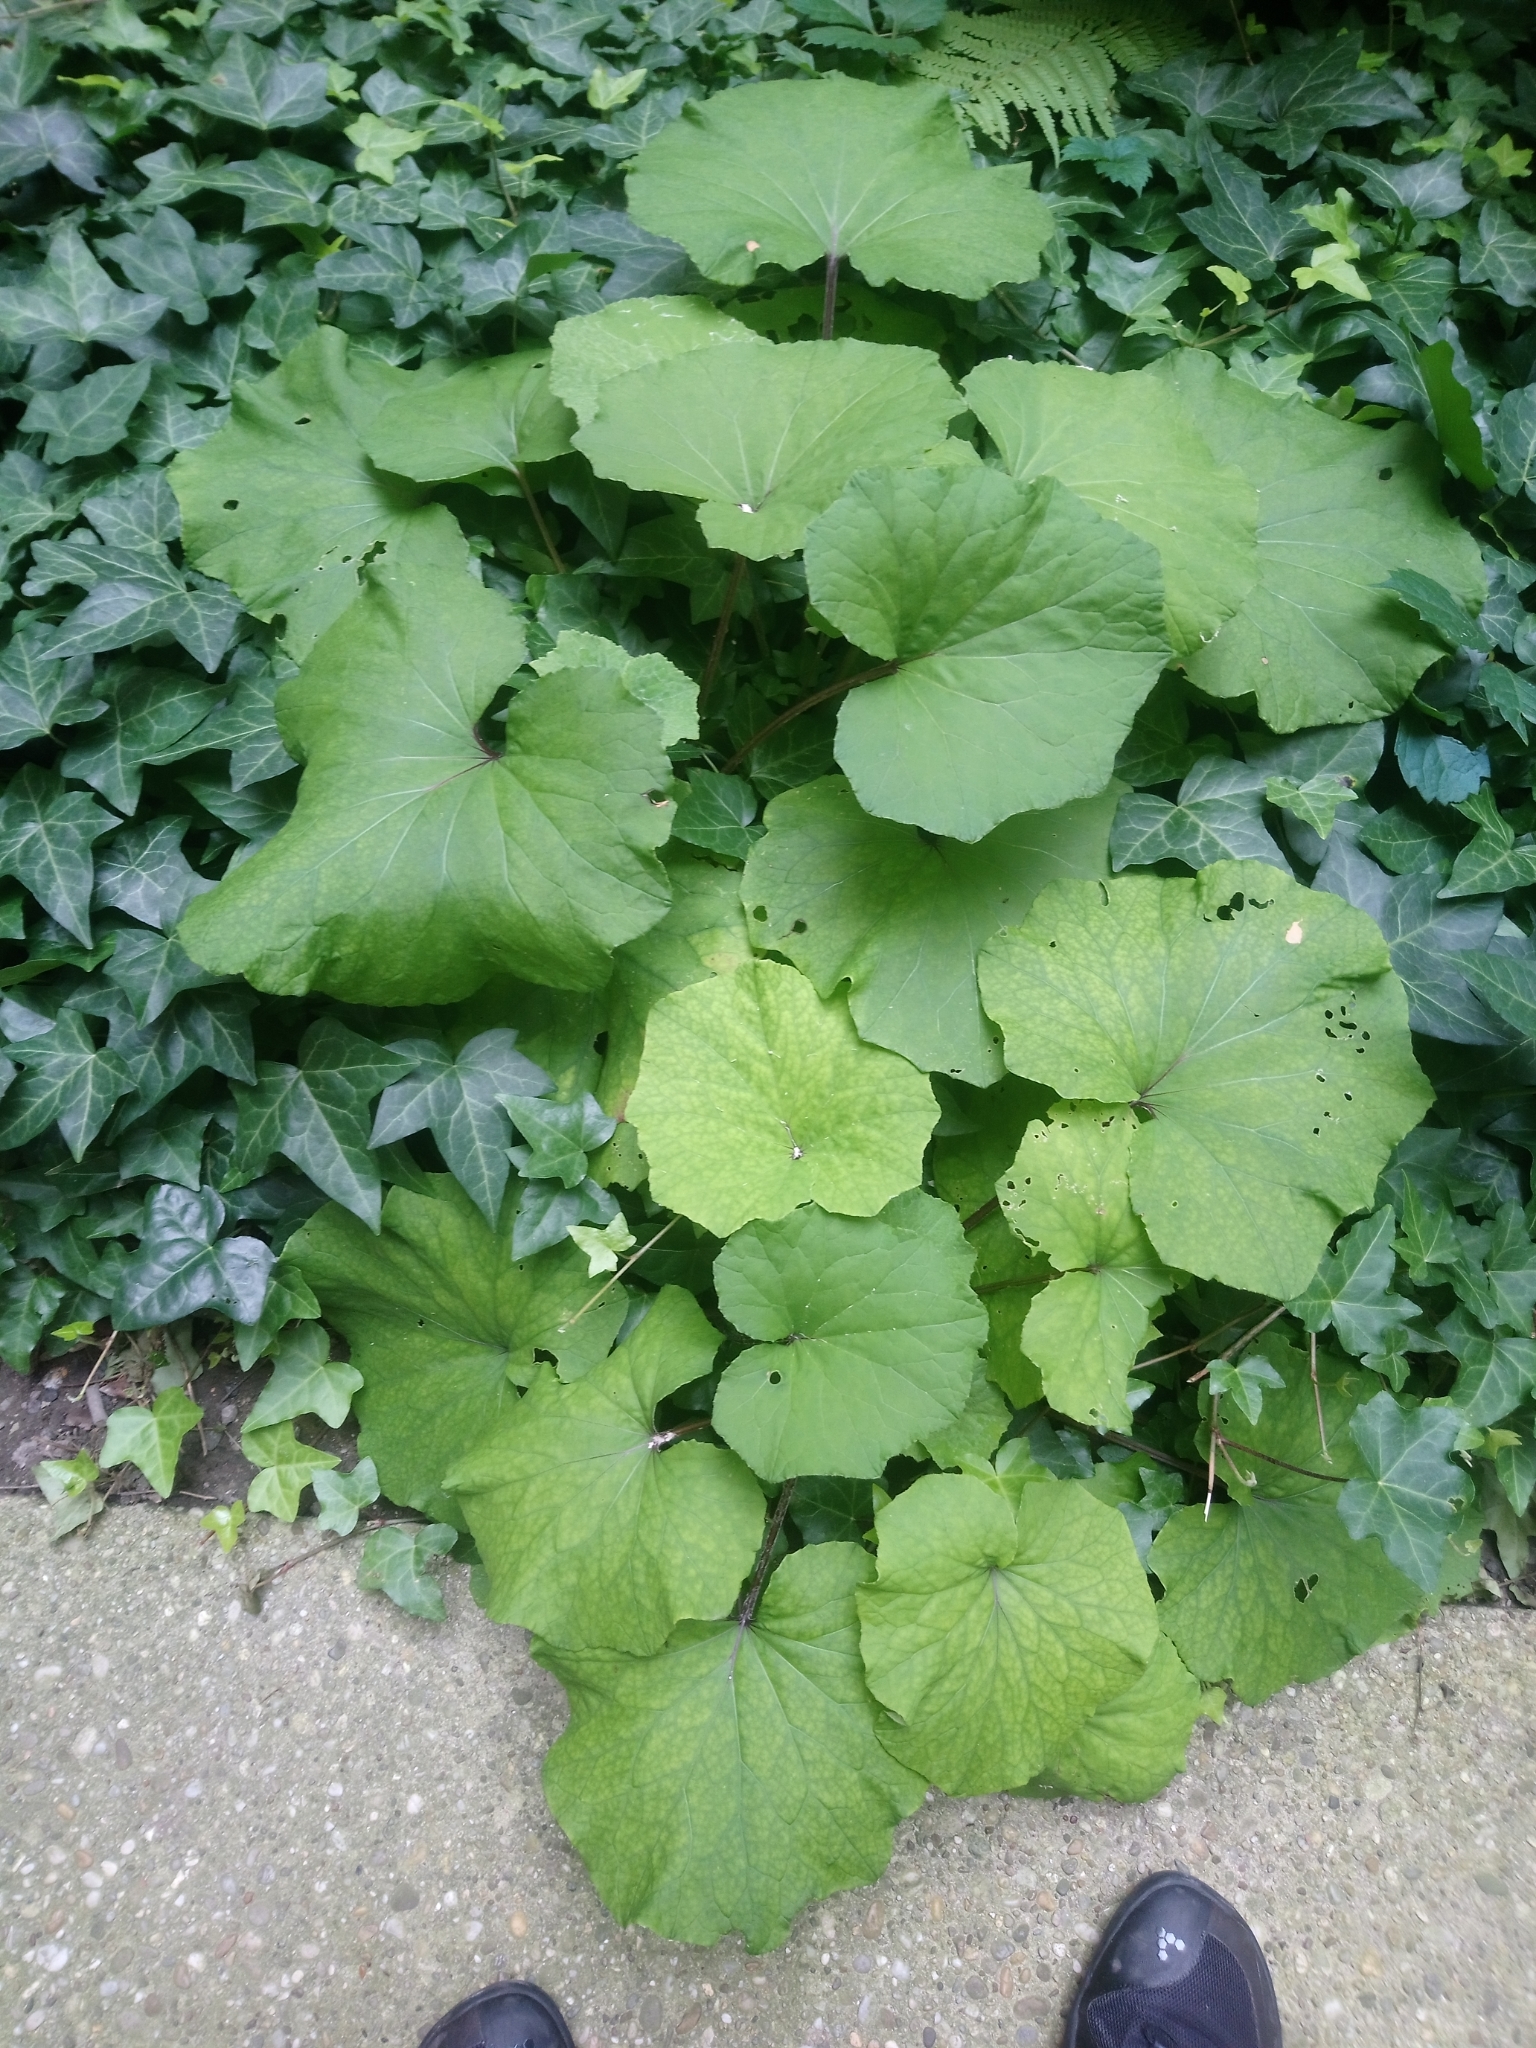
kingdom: Plantae
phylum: Tracheophyta
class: Magnoliopsida
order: Asterales
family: Asteraceae
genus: Tussilago
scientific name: Tussilago farfara
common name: Coltsfoot
